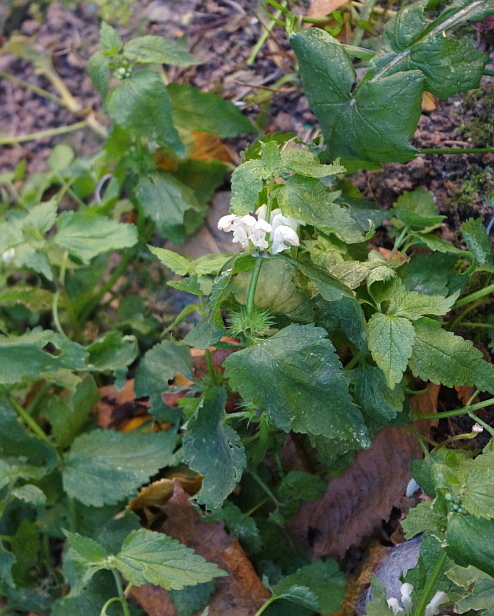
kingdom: Plantae
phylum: Tracheophyta
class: Magnoliopsida
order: Lamiales
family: Lamiaceae
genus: Lamium
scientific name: Lamium album
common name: White dead-nettle
